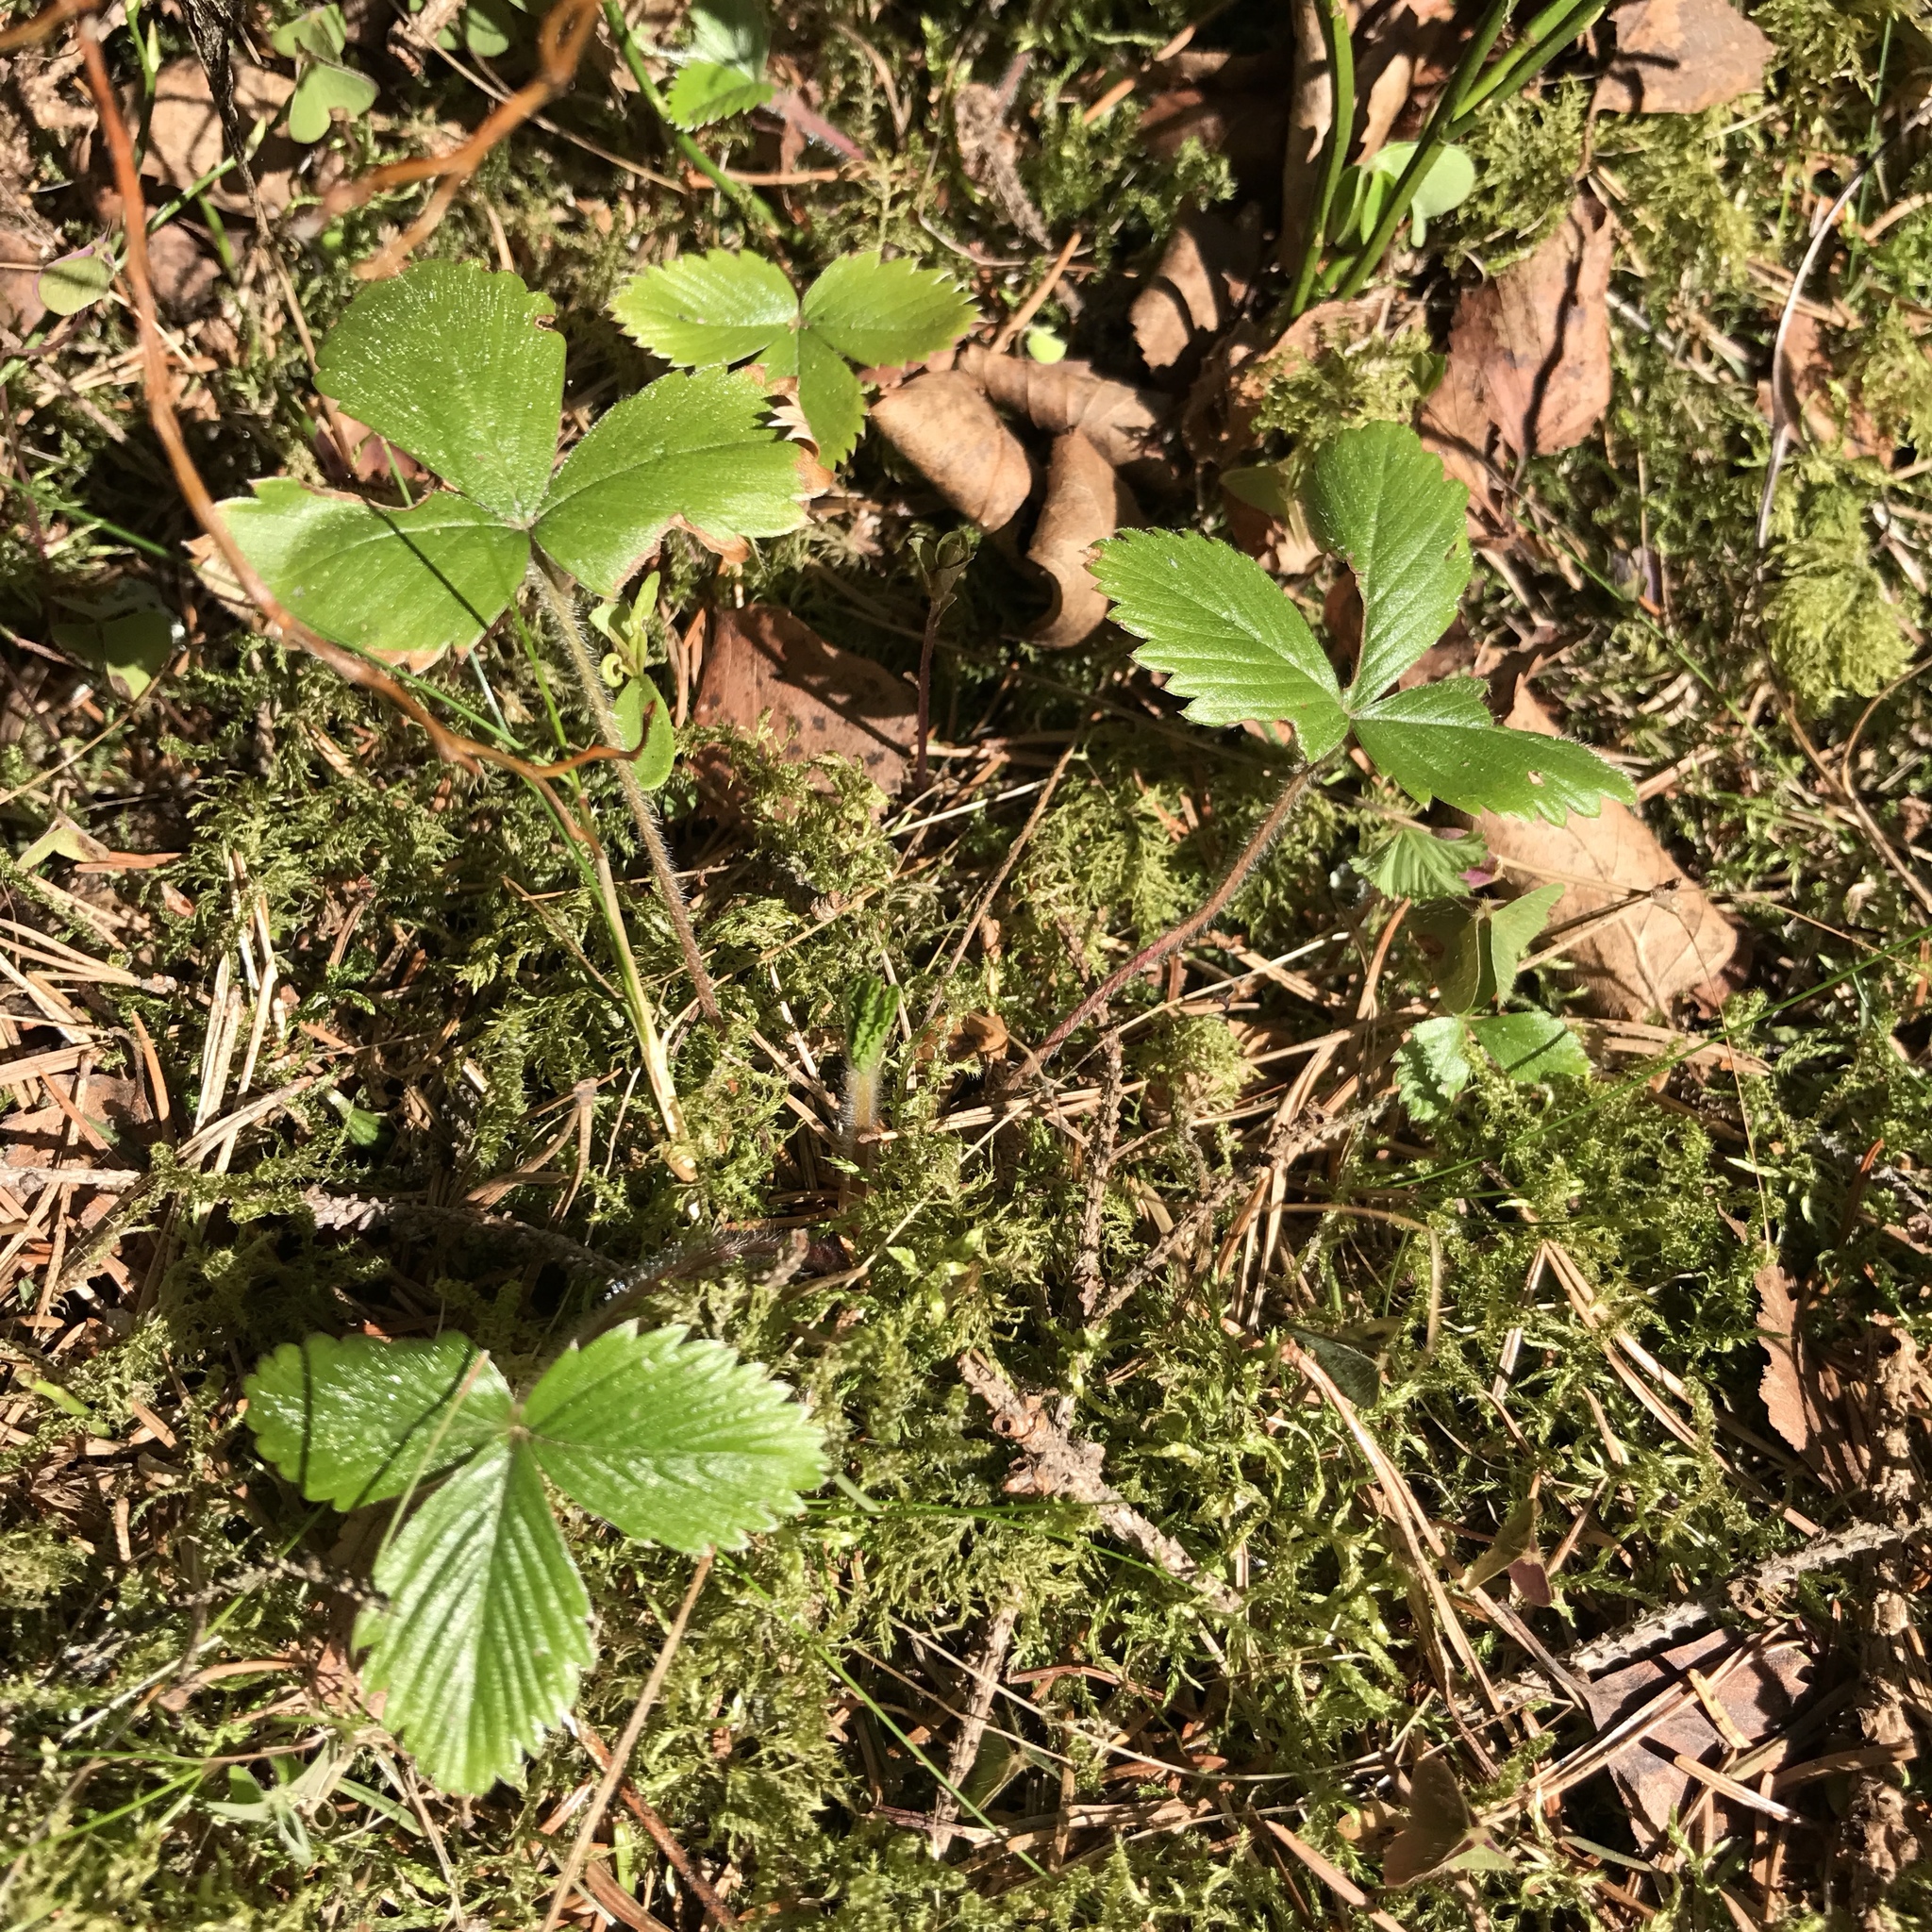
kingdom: Plantae
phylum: Tracheophyta
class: Magnoliopsida
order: Rosales
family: Rosaceae
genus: Fragaria
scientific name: Fragaria vesca
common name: Wild strawberry
